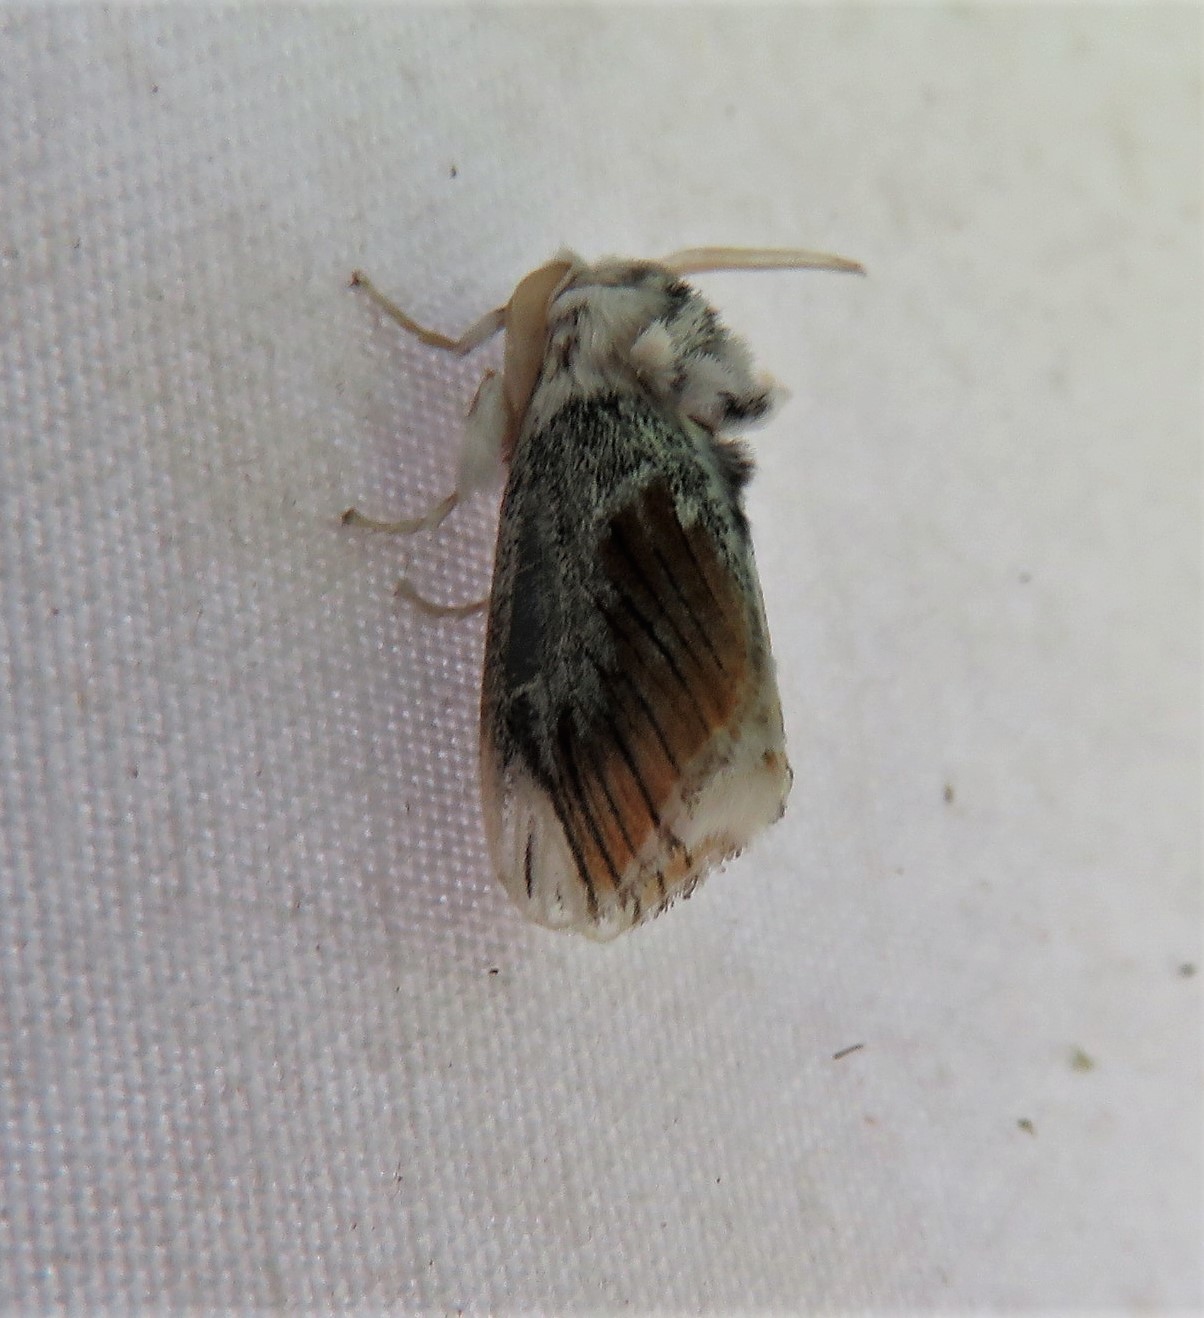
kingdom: Animalia
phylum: Arthropoda
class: Insecta
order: Lepidoptera
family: Megalopygidae
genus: Mesoscia
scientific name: Mesoscia terminata
